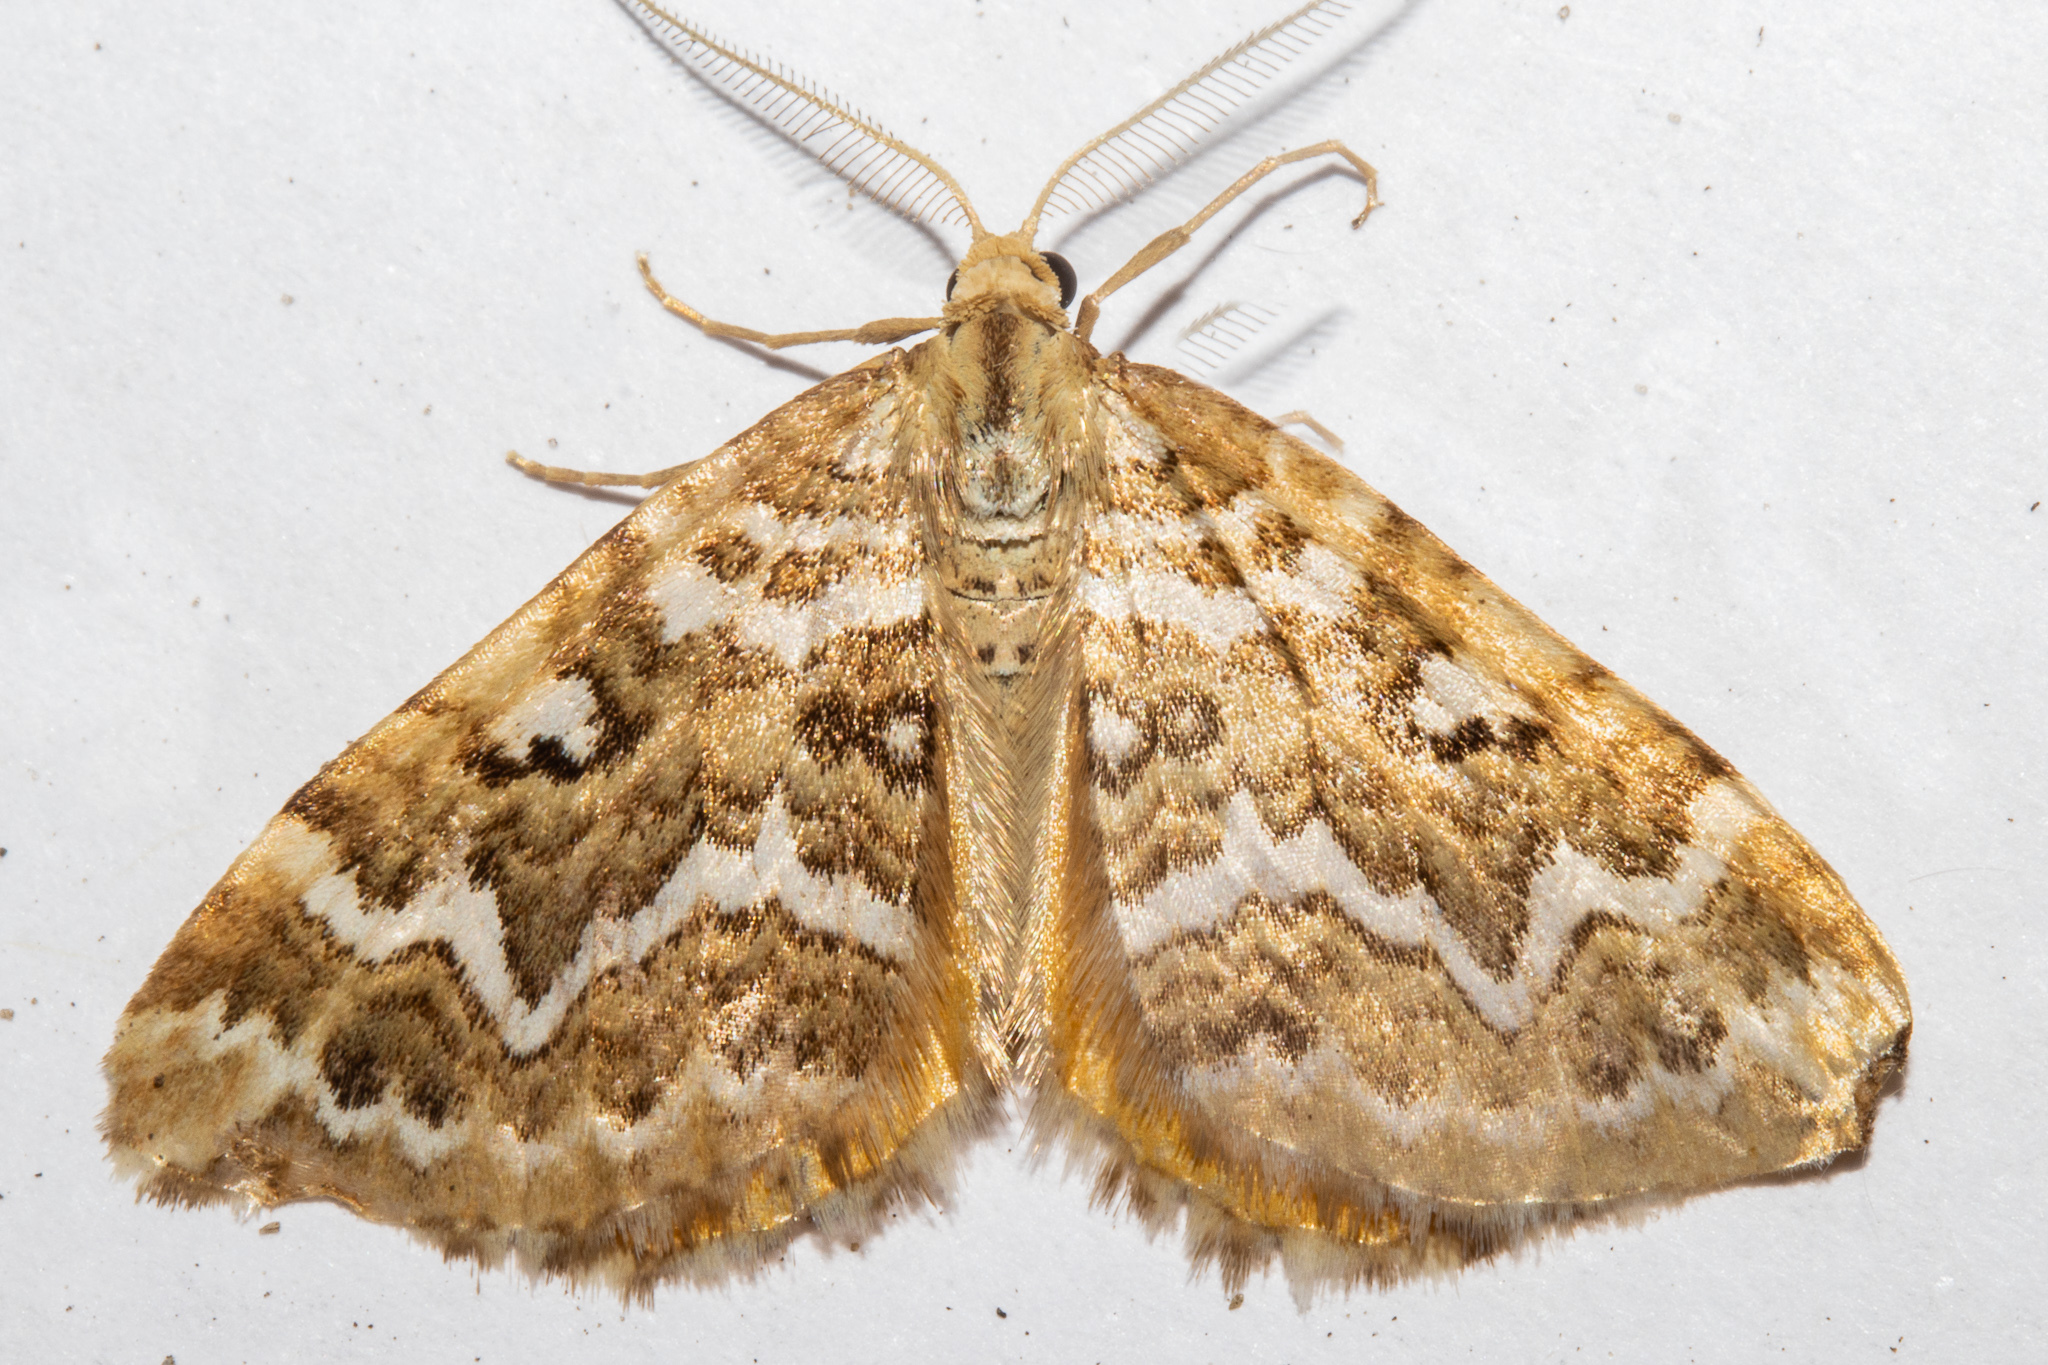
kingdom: Animalia
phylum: Arthropoda
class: Insecta
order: Lepidoptera
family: Geometridae
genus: Asaphodes
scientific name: Asaphodes clarata
